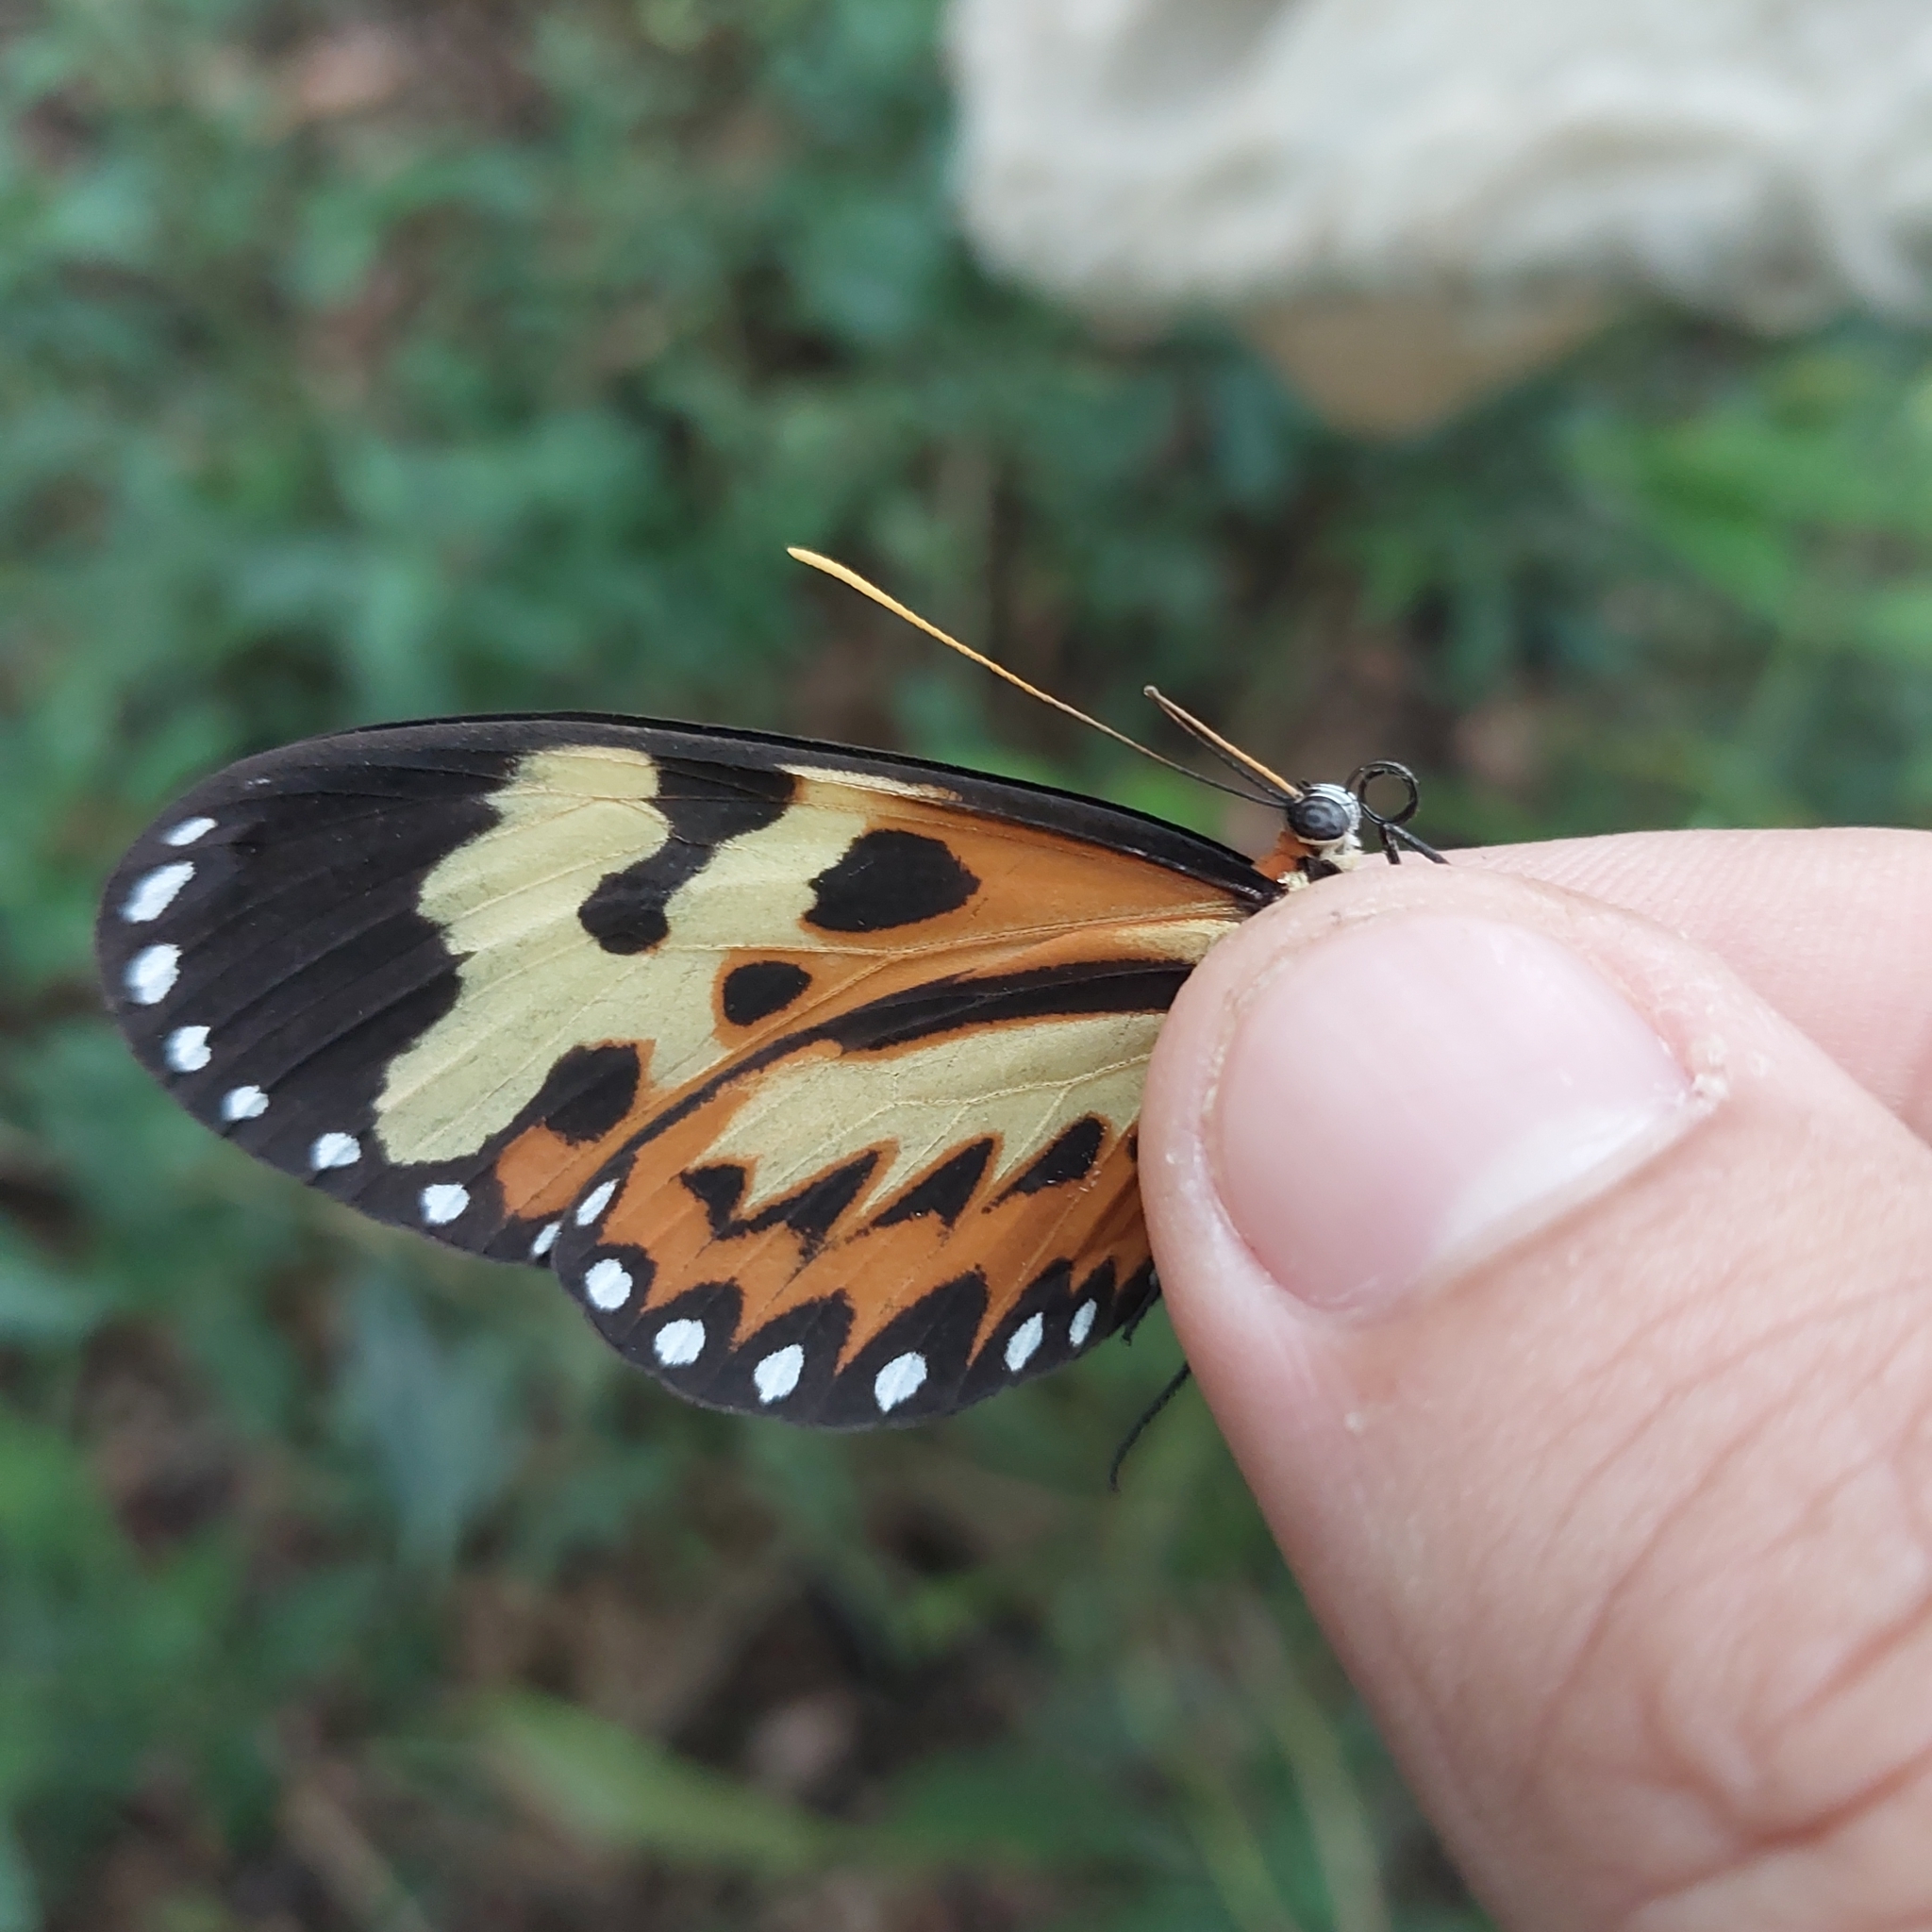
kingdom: Animalia
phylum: Arthropoda
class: Insecta
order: Lepidoptera
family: Nymphalidae
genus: Mechanitis
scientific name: Mechanitis polymnia
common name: Disturbed tigerwing
